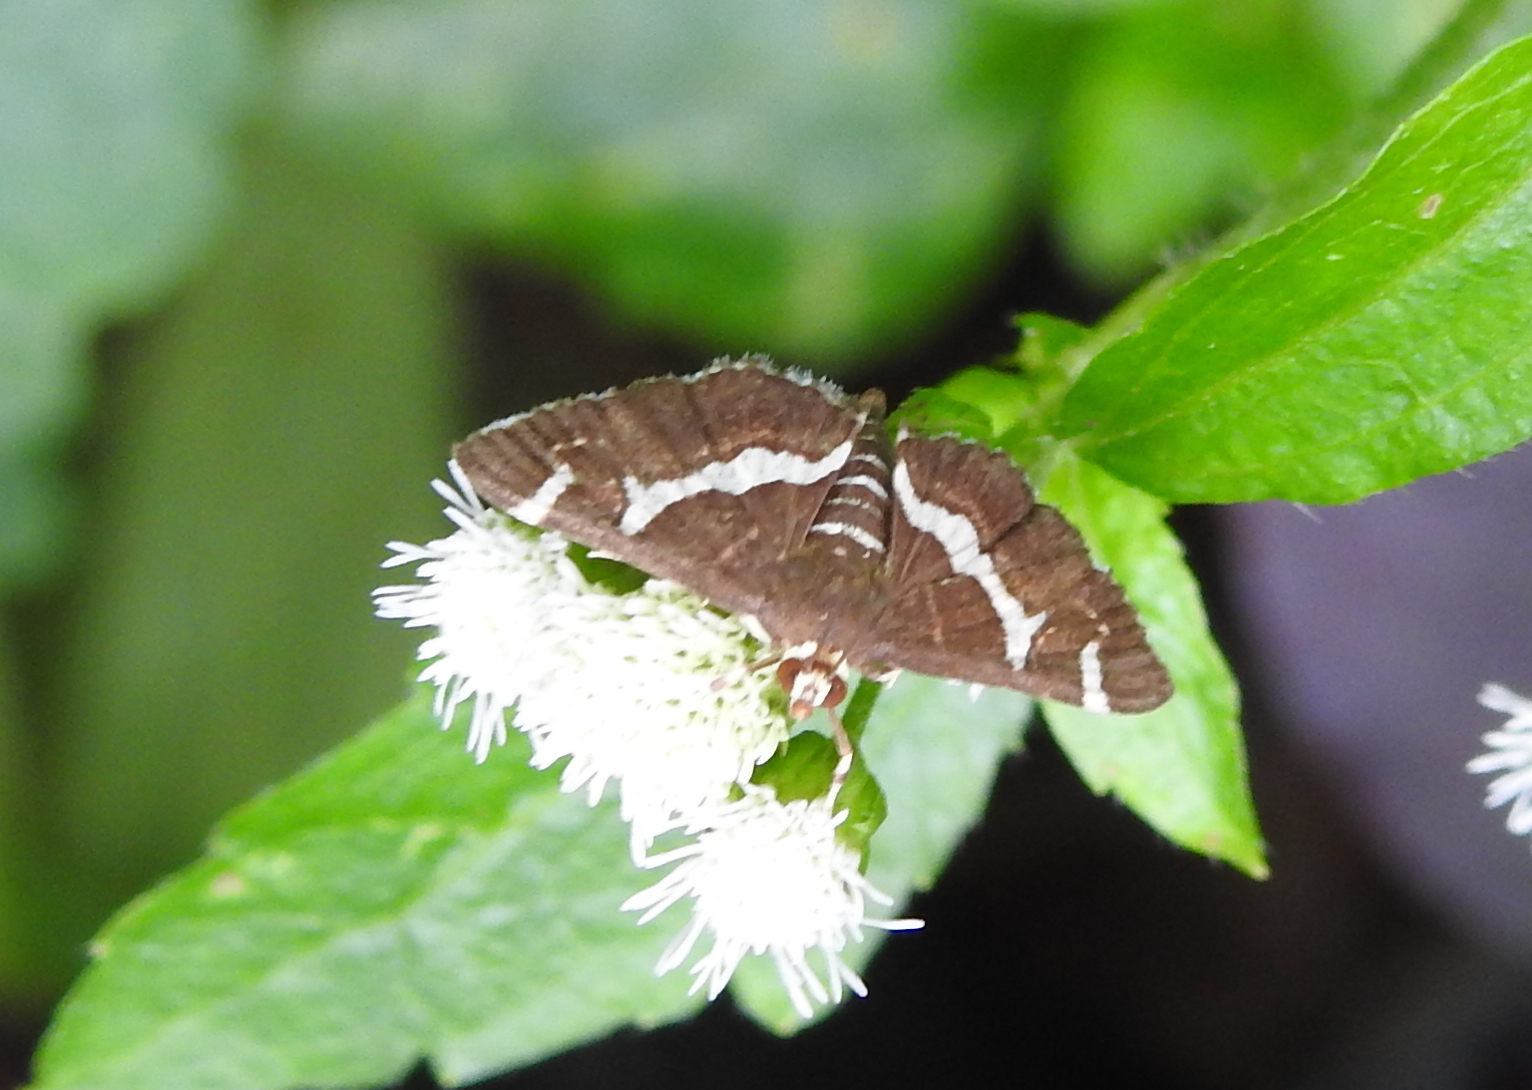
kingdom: Animalia
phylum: Arthropoda
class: Insecta
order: Lepidoptera
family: Crambidae
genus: Spoladea
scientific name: Spoladea recurvalis
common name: Beet webworm moth
